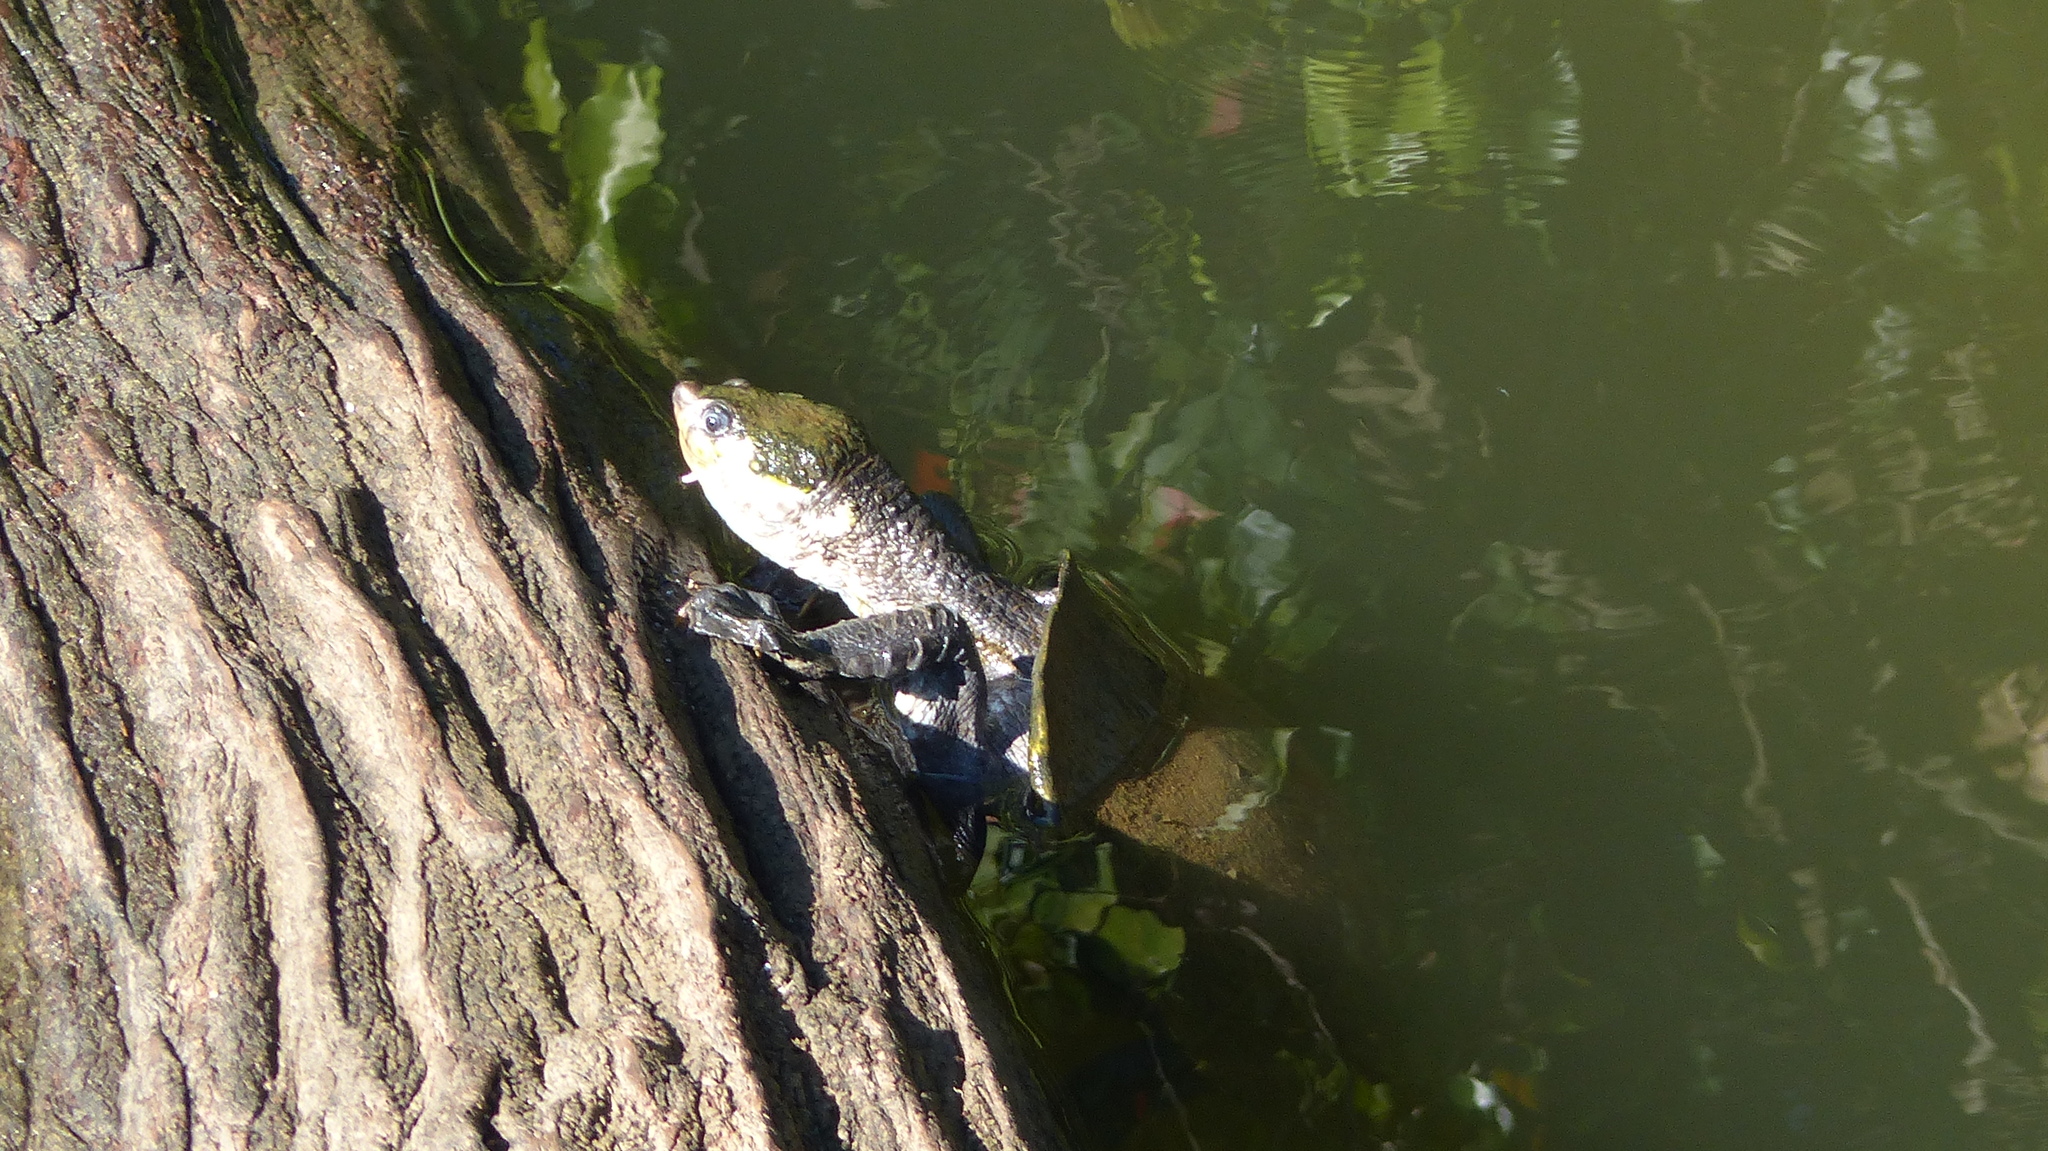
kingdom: Animalia
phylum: Chordata
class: Testudines
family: Chelidae
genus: Elseya
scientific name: Elseya albagula
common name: White-throated snapping turtle
